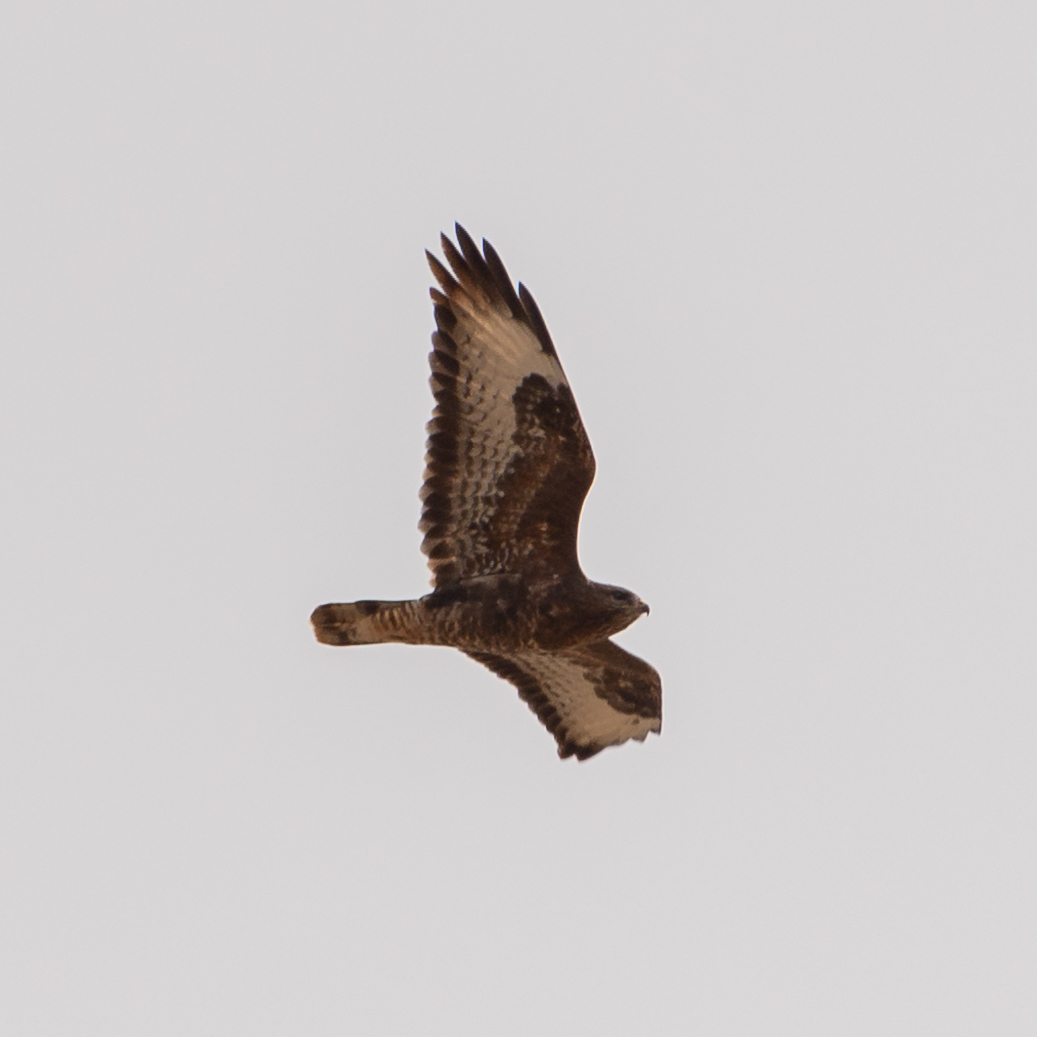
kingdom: Animalia
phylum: Chordata
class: Aves
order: Accipitriformes
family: Accipitridae
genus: Buteo
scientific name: Buteo buteo
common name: Common buzzard
